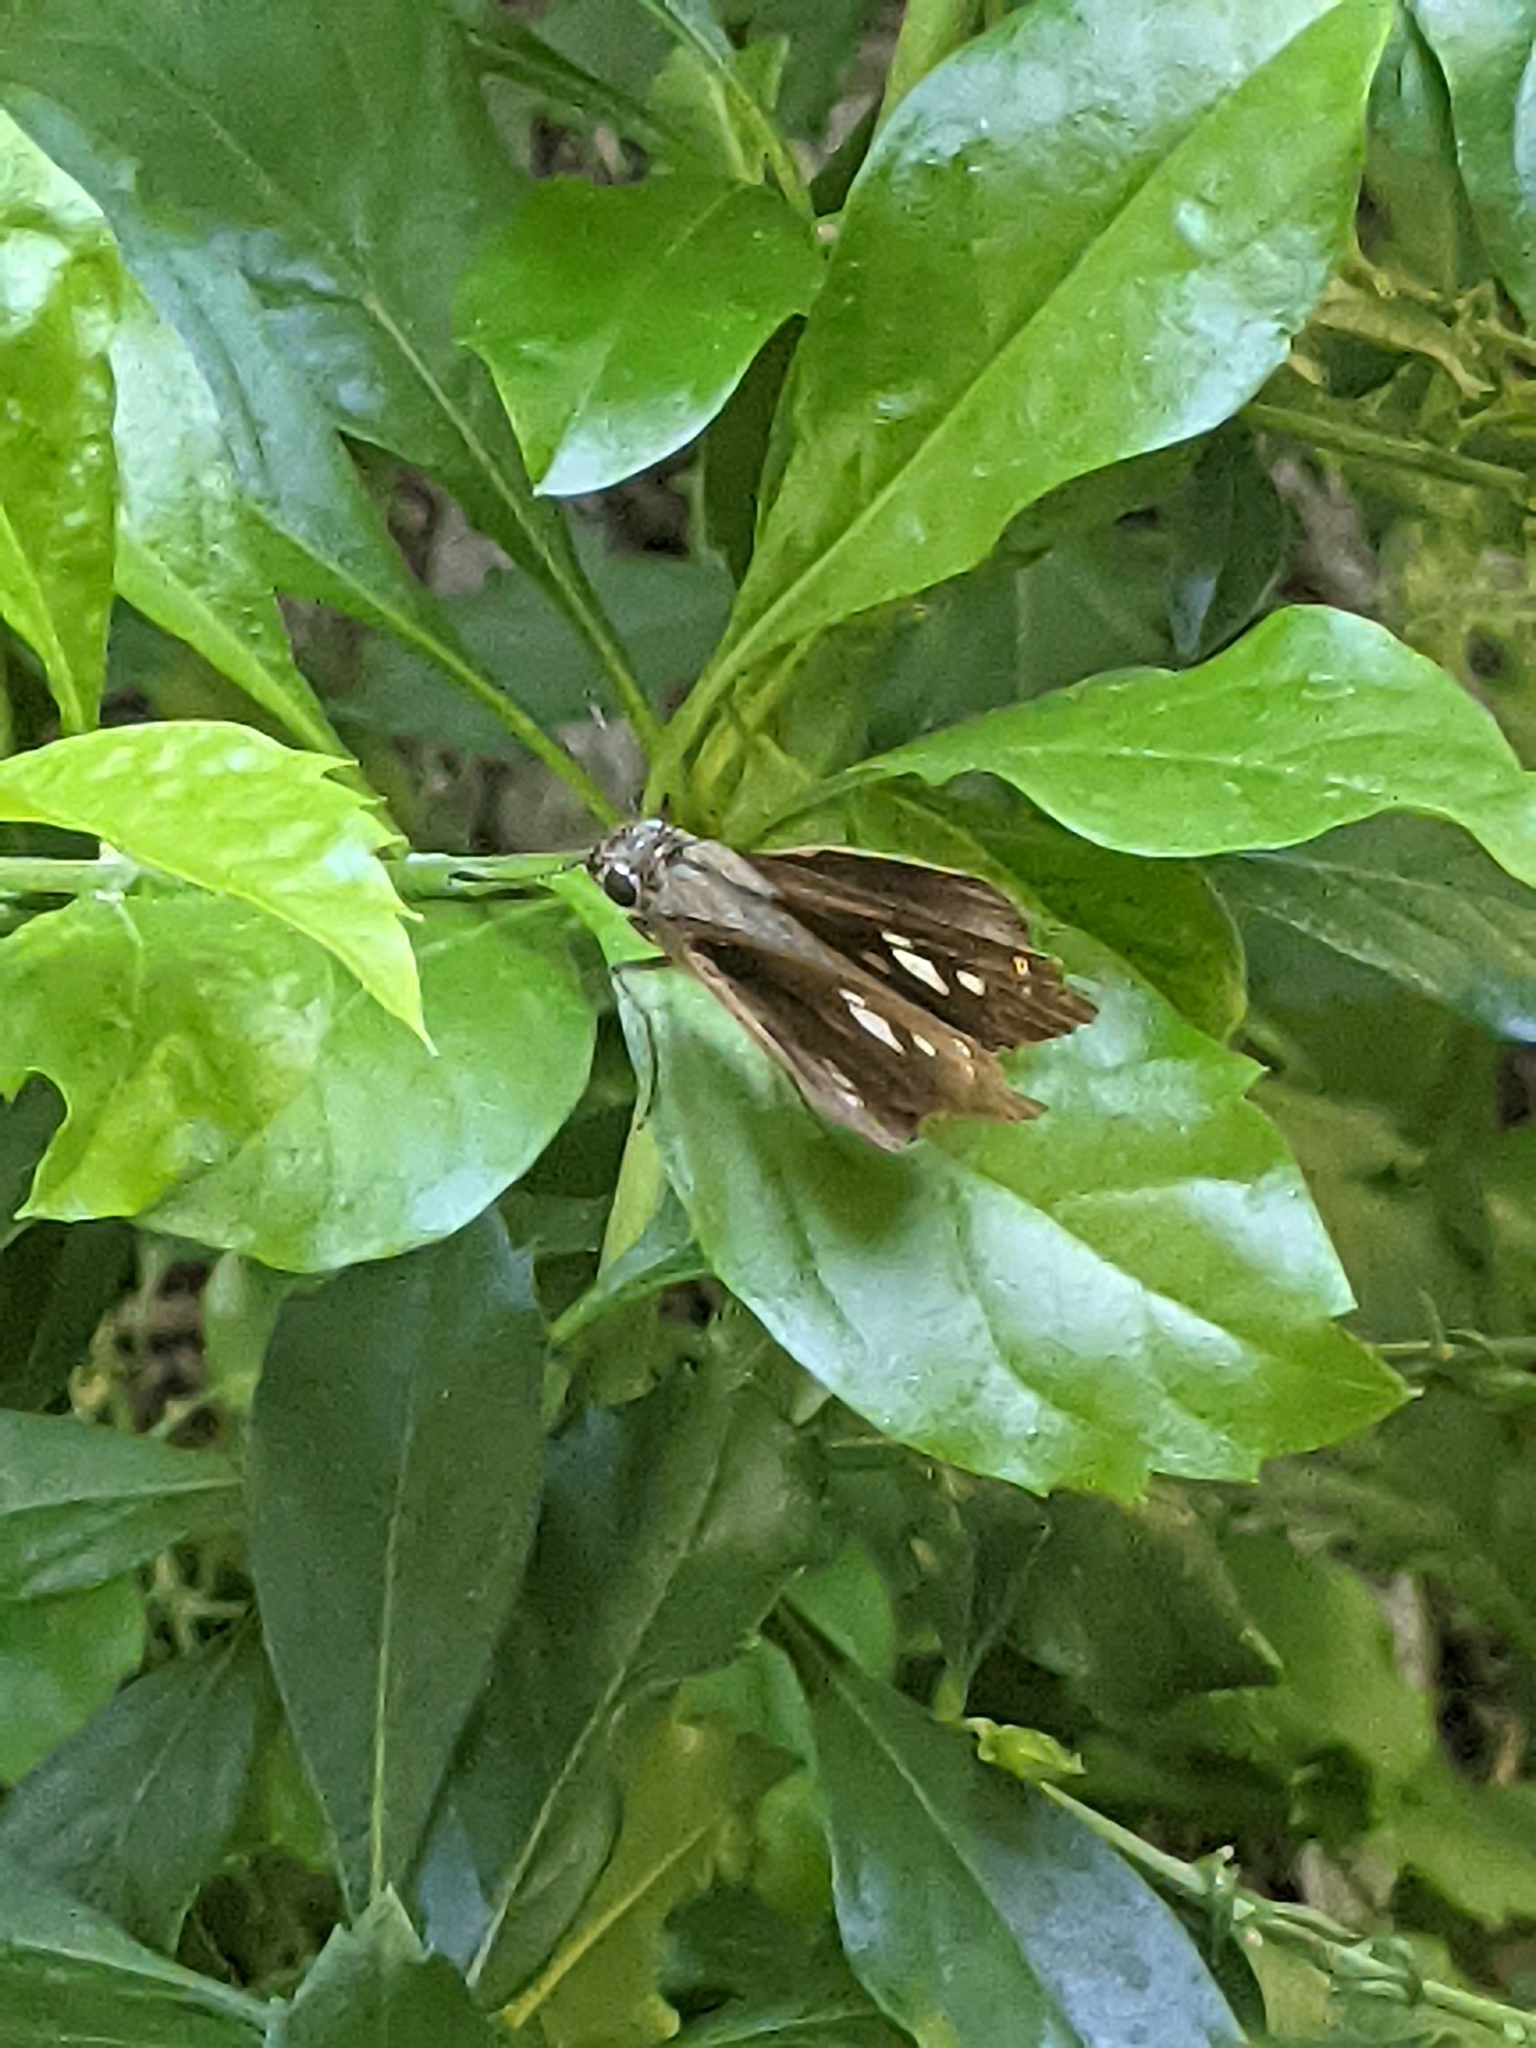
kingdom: Animalia
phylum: Arthropoda
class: Insecta
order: Lepidoptera
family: Hesperiidae
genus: Calpodes
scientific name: Calpodes ethlius
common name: Brazilian skipper
